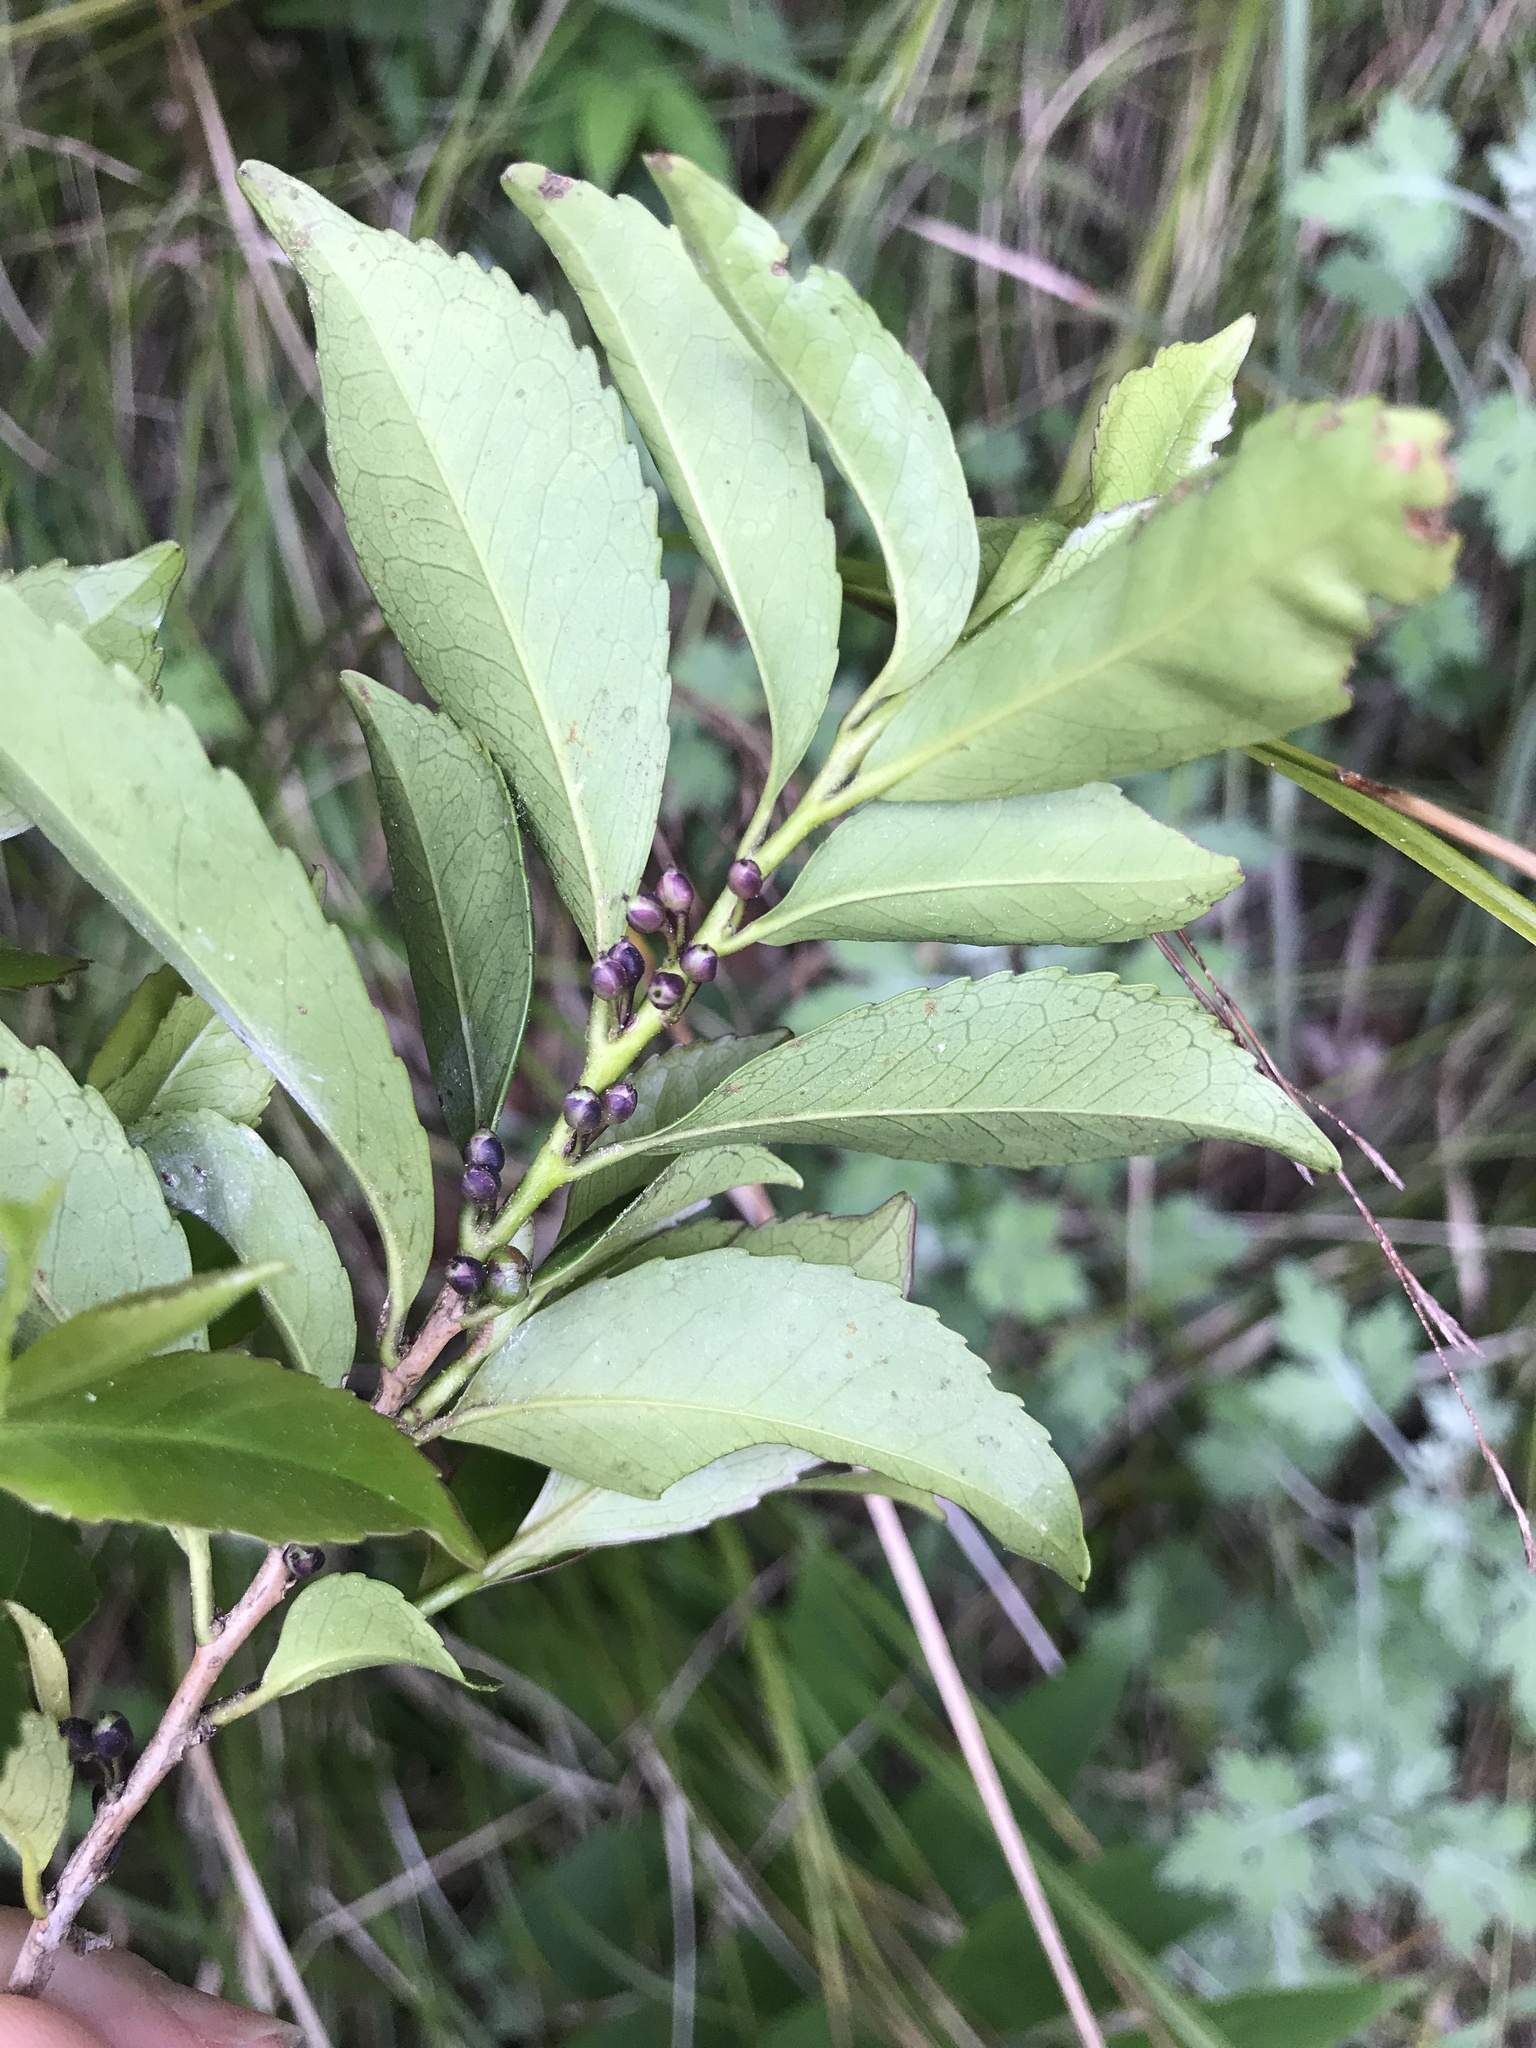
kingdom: Plantae
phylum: Tracheophyta
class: Magnoliopsida
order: Ericales
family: Pentaphylacaceae
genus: Eurya
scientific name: Eurya japonica
